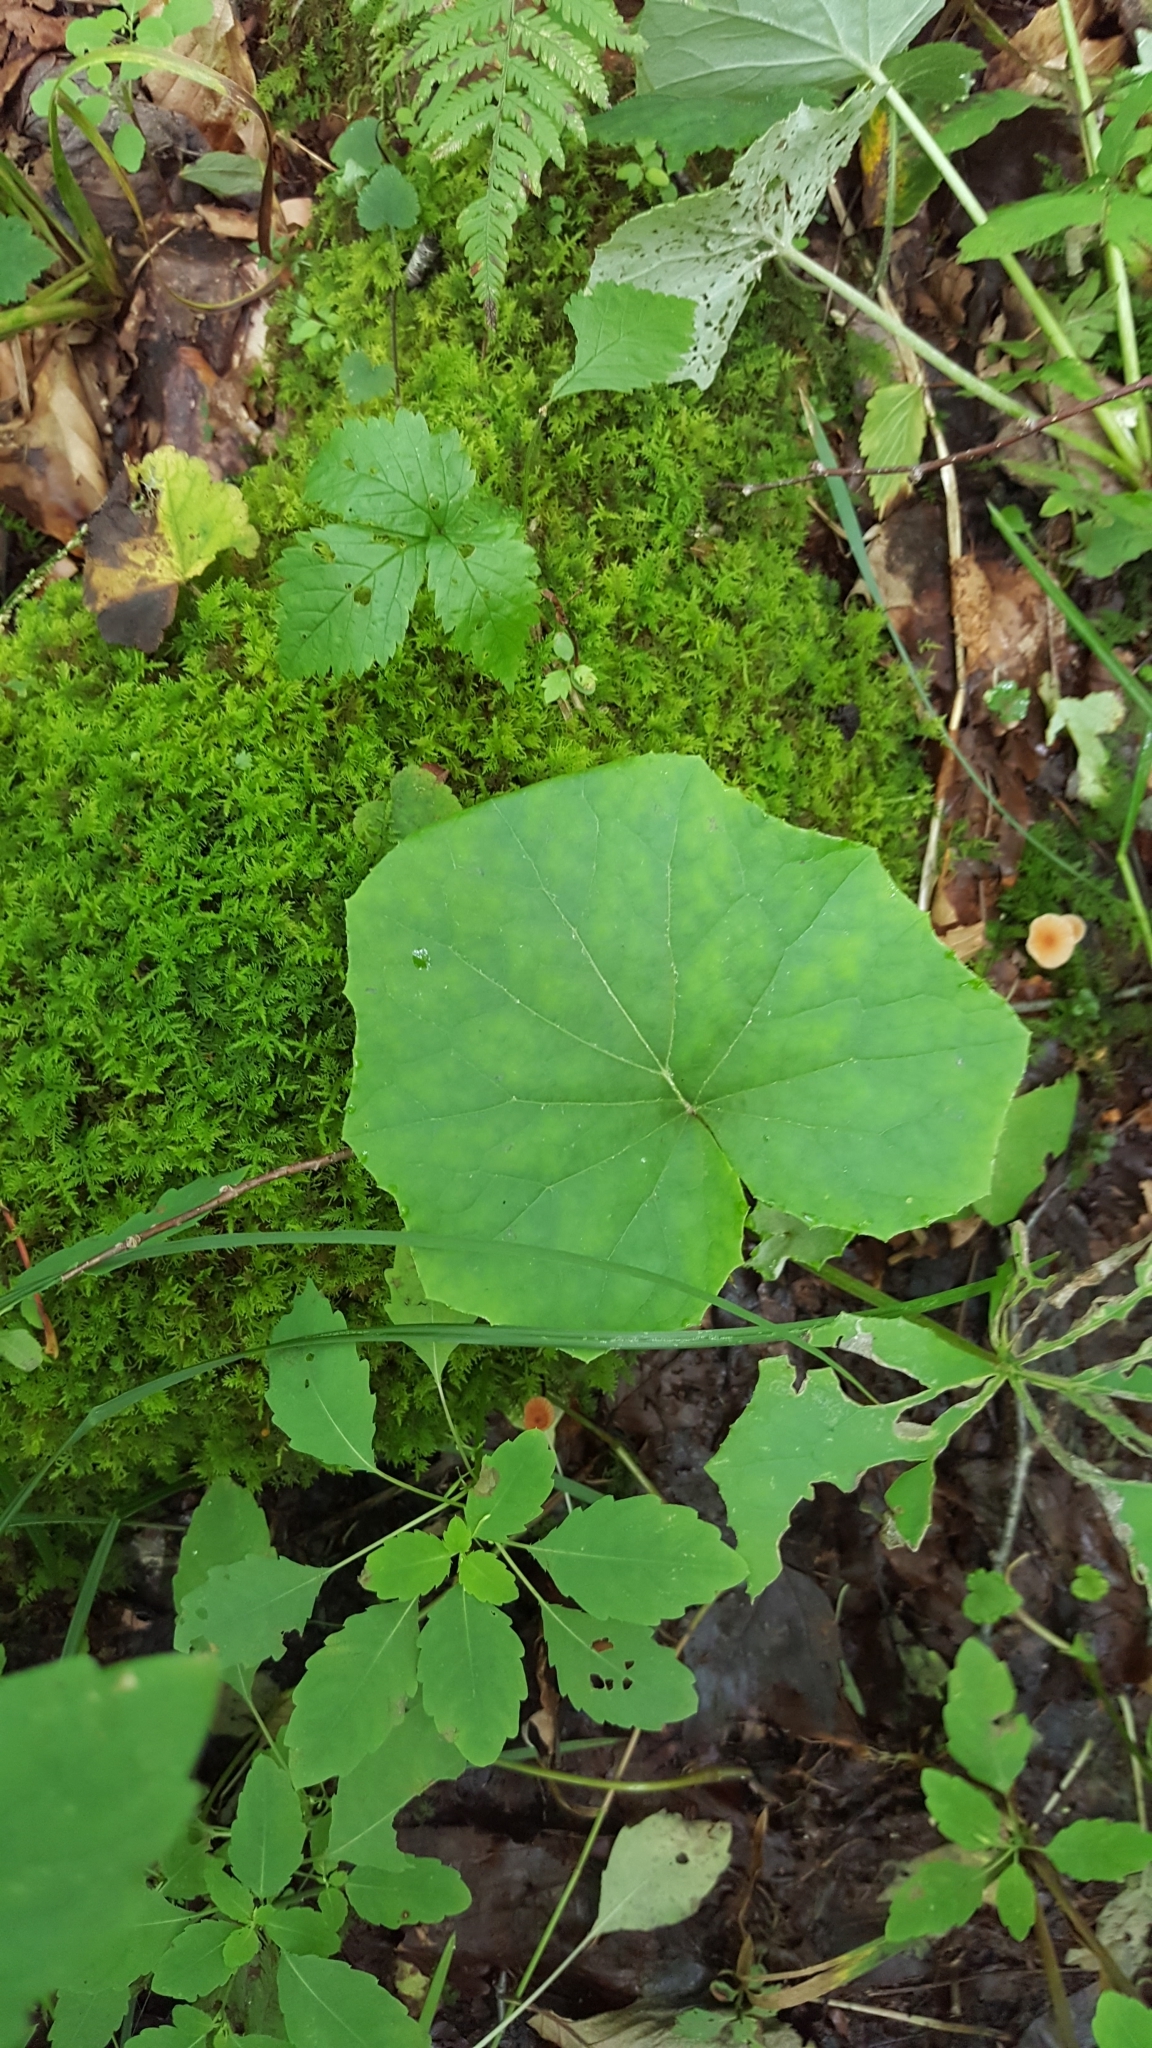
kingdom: Plantae
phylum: Tracheophyta
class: Magnoliopsida
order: Asterales
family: Asteraceae
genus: Tussilago
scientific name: Tussilago farfara
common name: Coltsfoot
